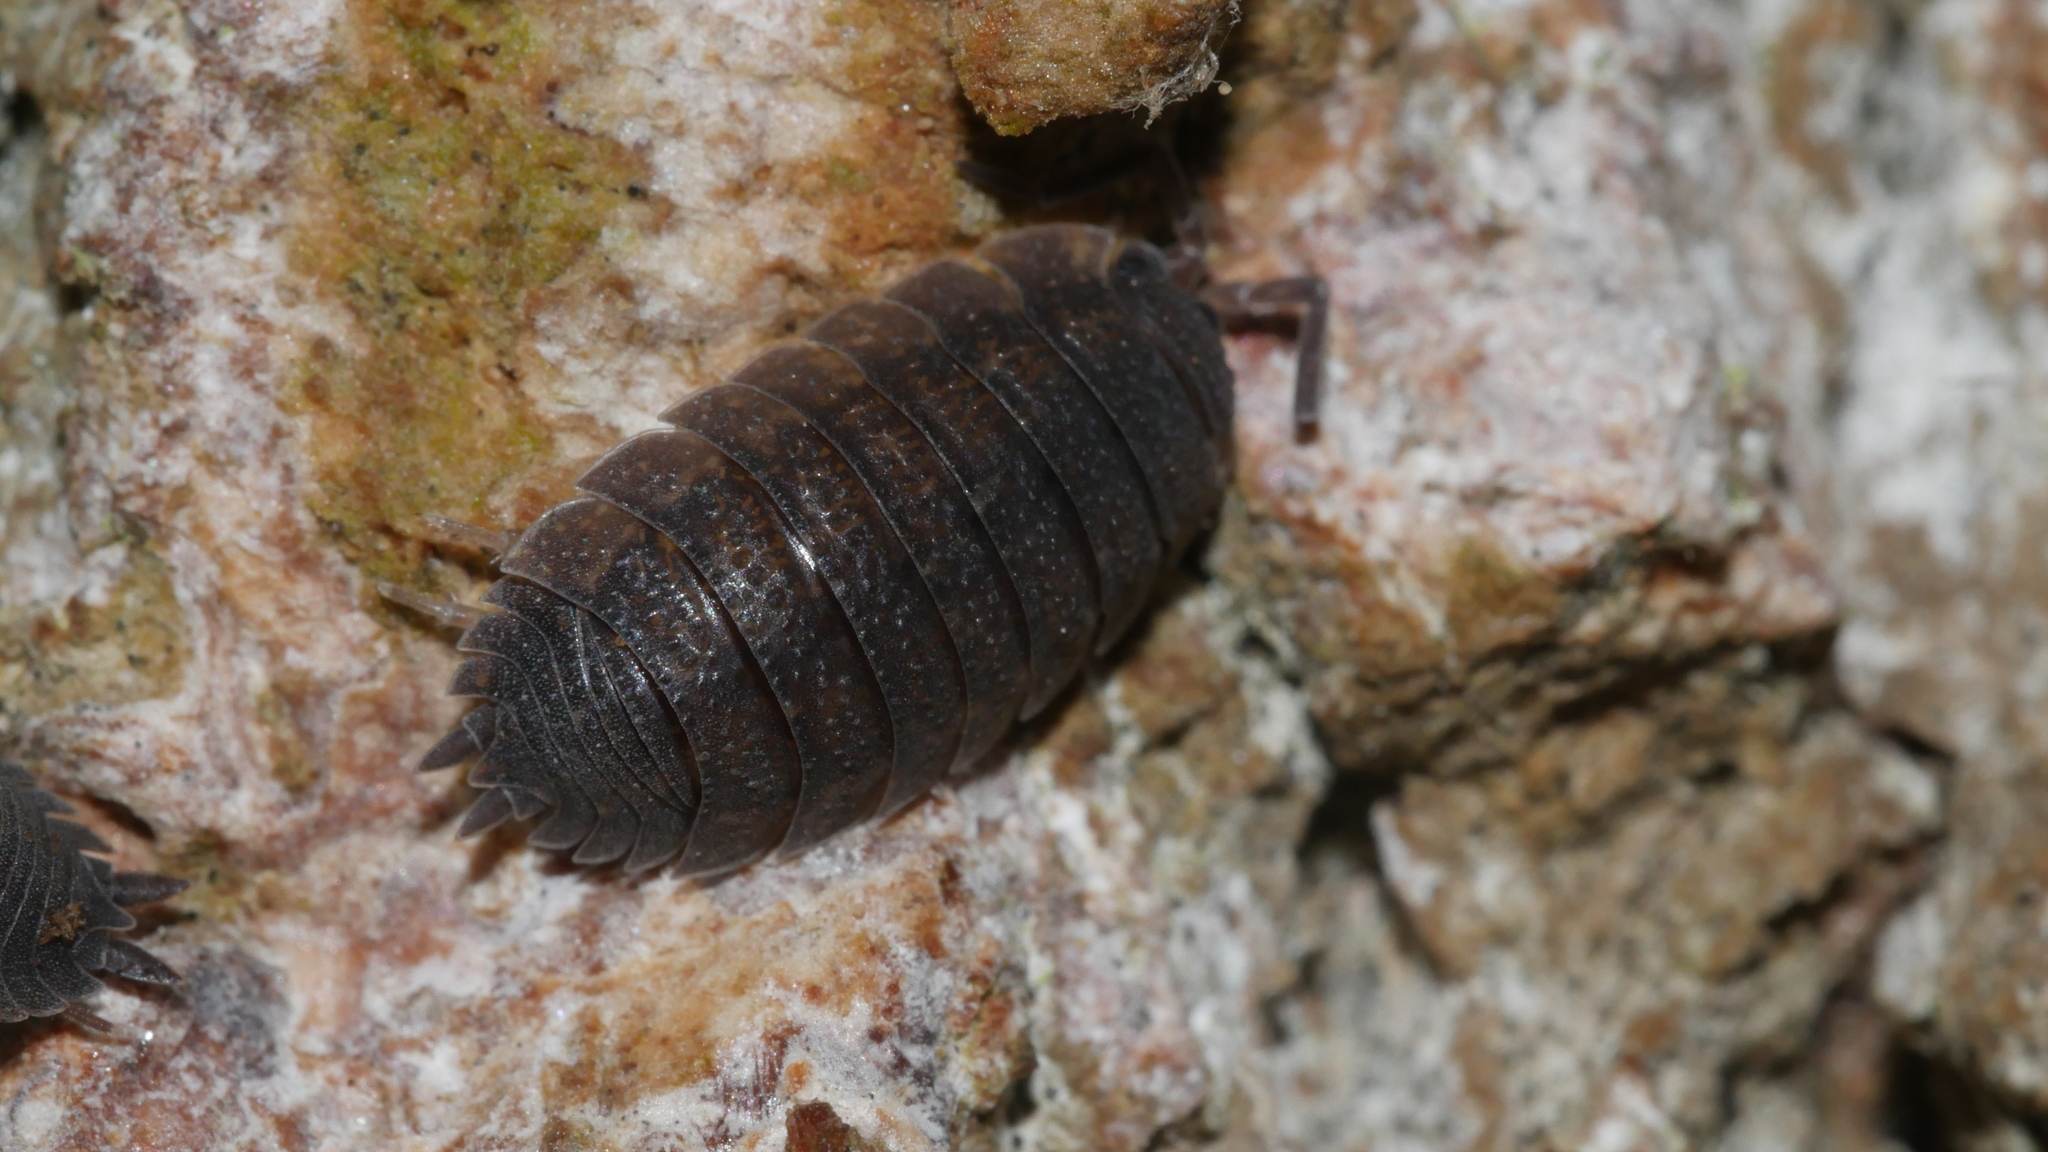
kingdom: Animalia
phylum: Arthropoda
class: Malacostraca
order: Isopoda
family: Porcellionidae
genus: Porcellio
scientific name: Porcellio scaber
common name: Common rough woodlouse
